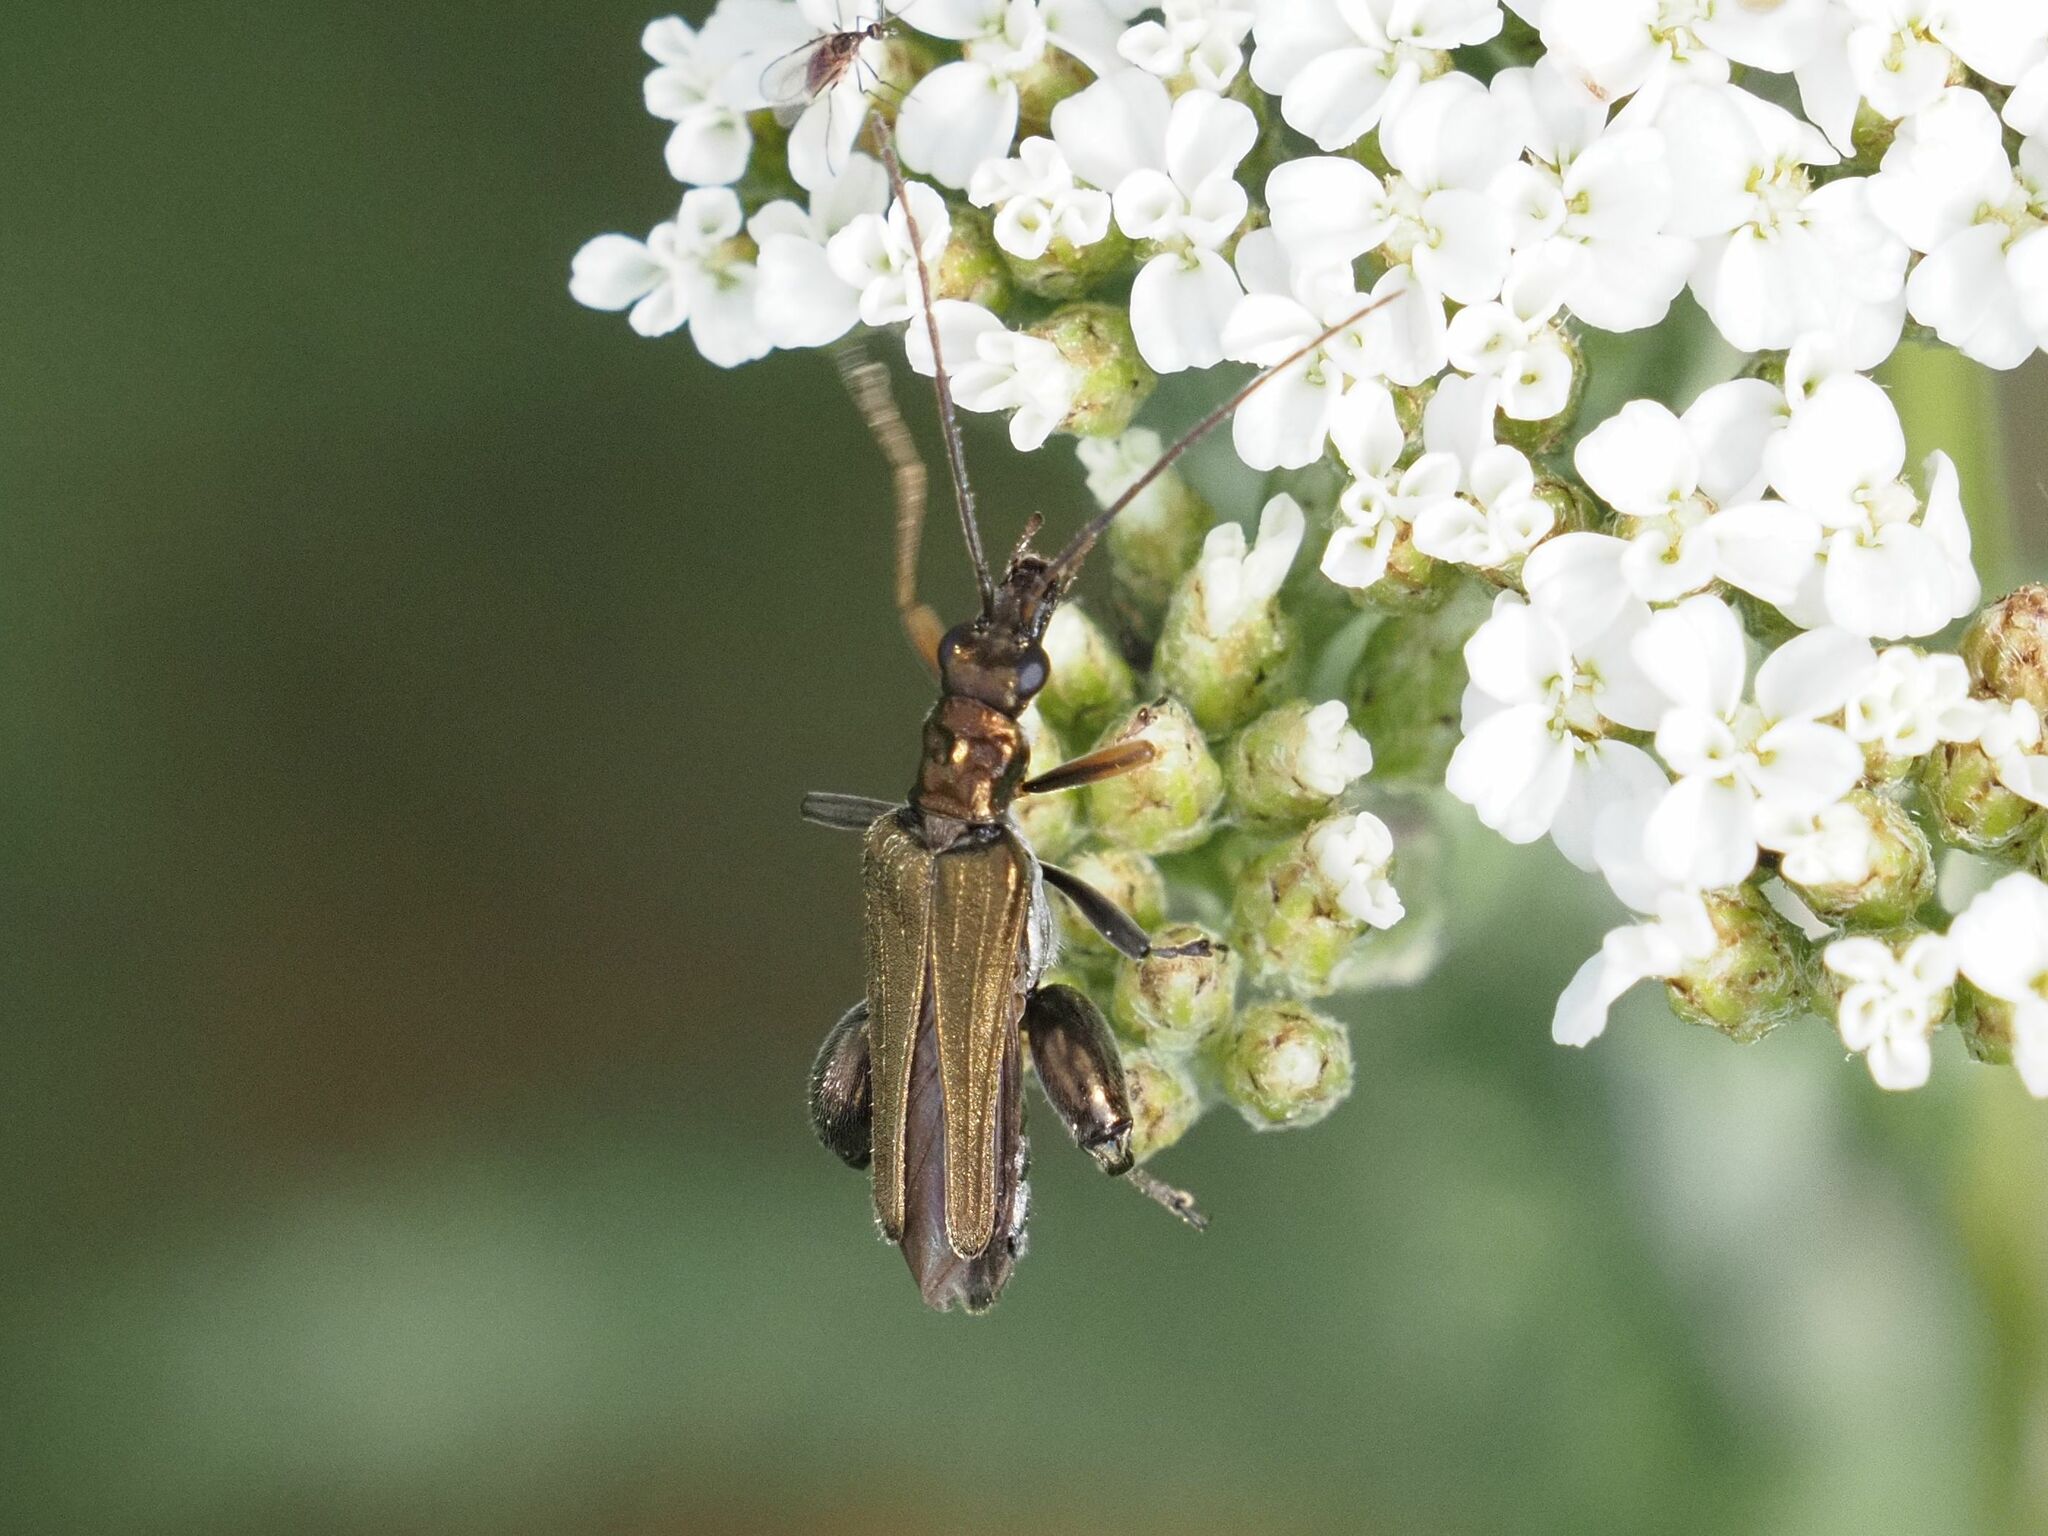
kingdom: Animalia
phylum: Arthropoda
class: Insecta
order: Coleoptera
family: Oedemeridae
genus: Oedemera
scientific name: Oedemera flavipes
